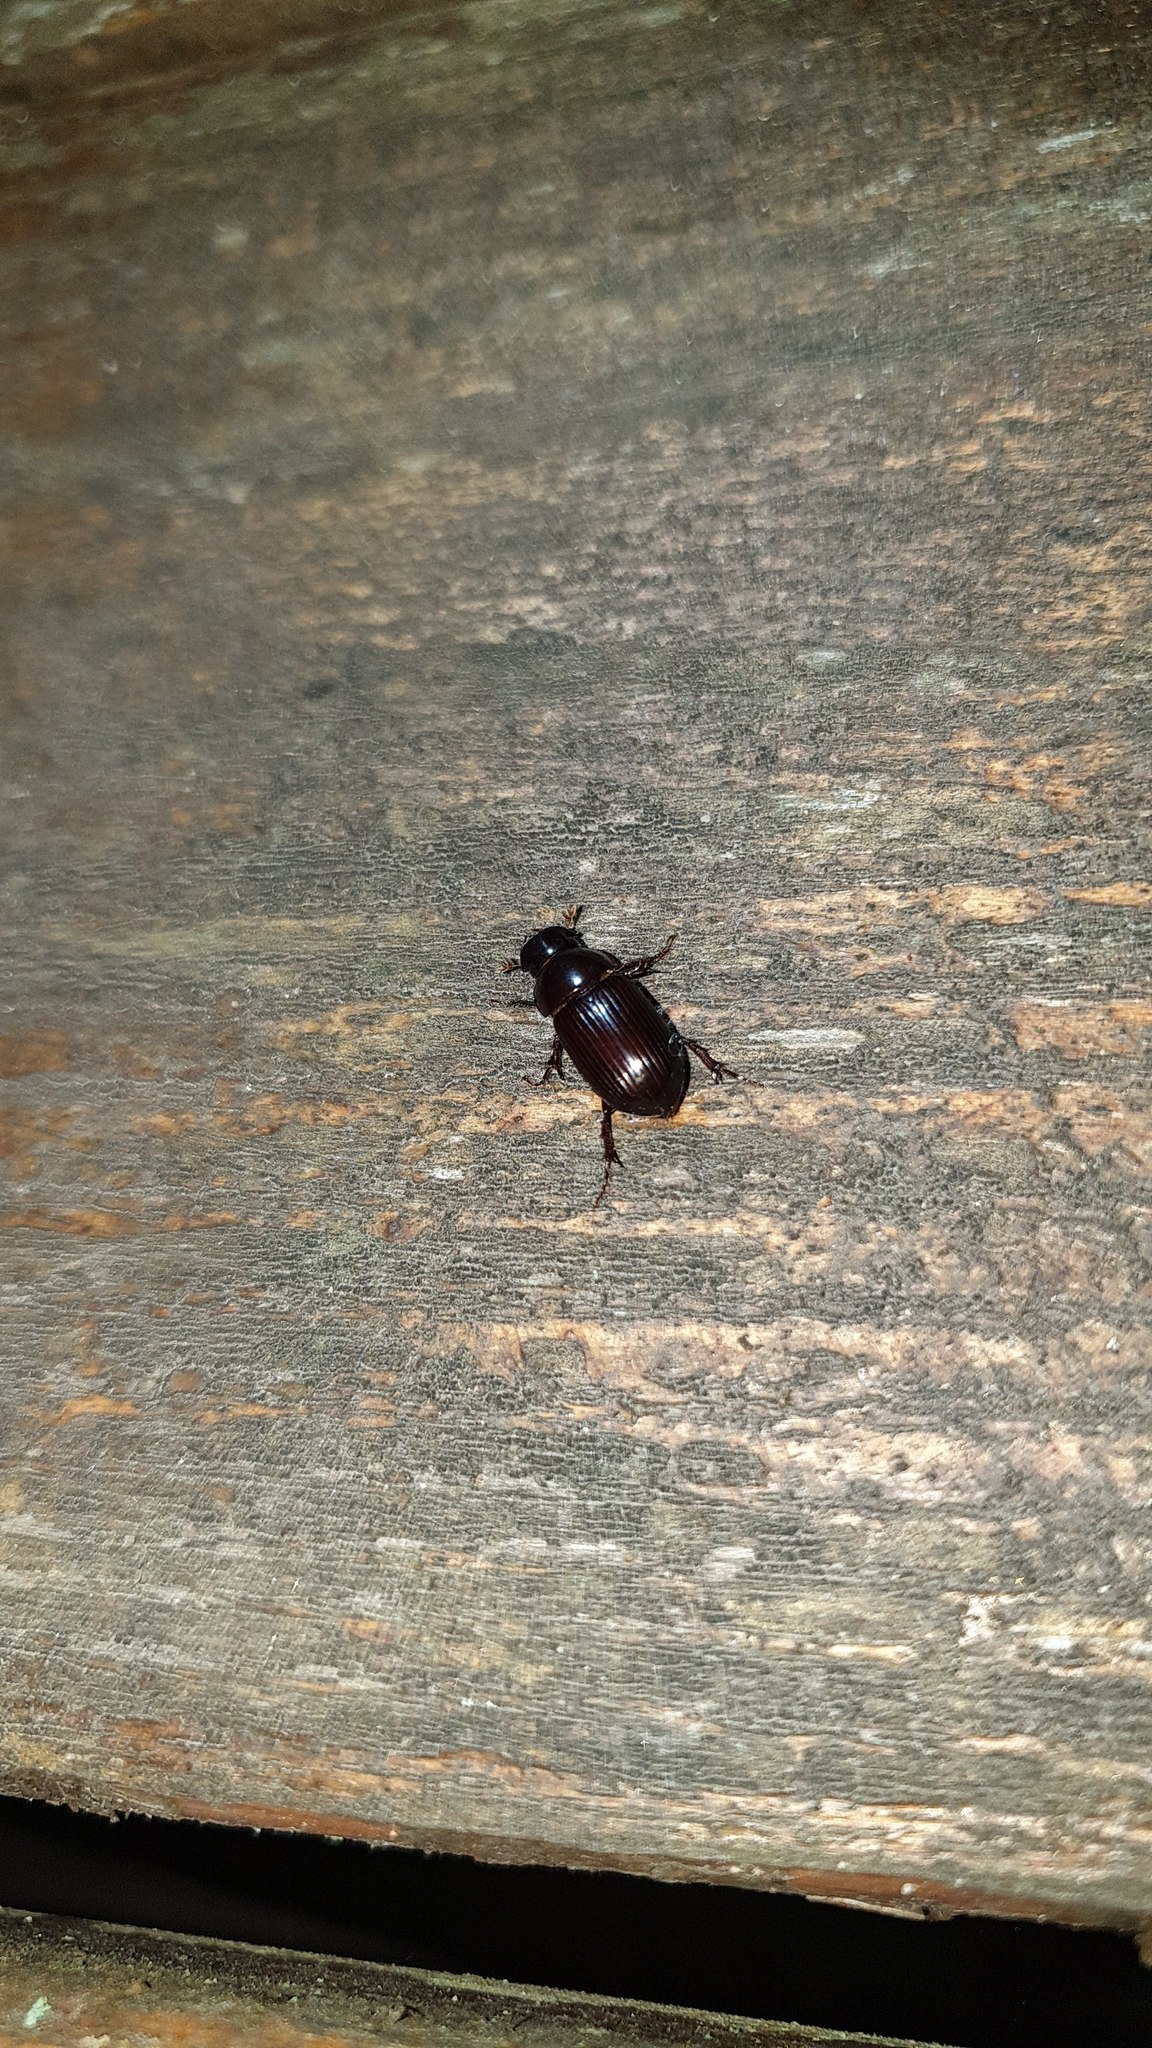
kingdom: Animalia
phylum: Arthropoda
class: Insecta
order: Coleoptera
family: Scarabaeidae
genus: Acrossus
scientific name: Acrossus rufipes
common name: Night-flying dung beetle
